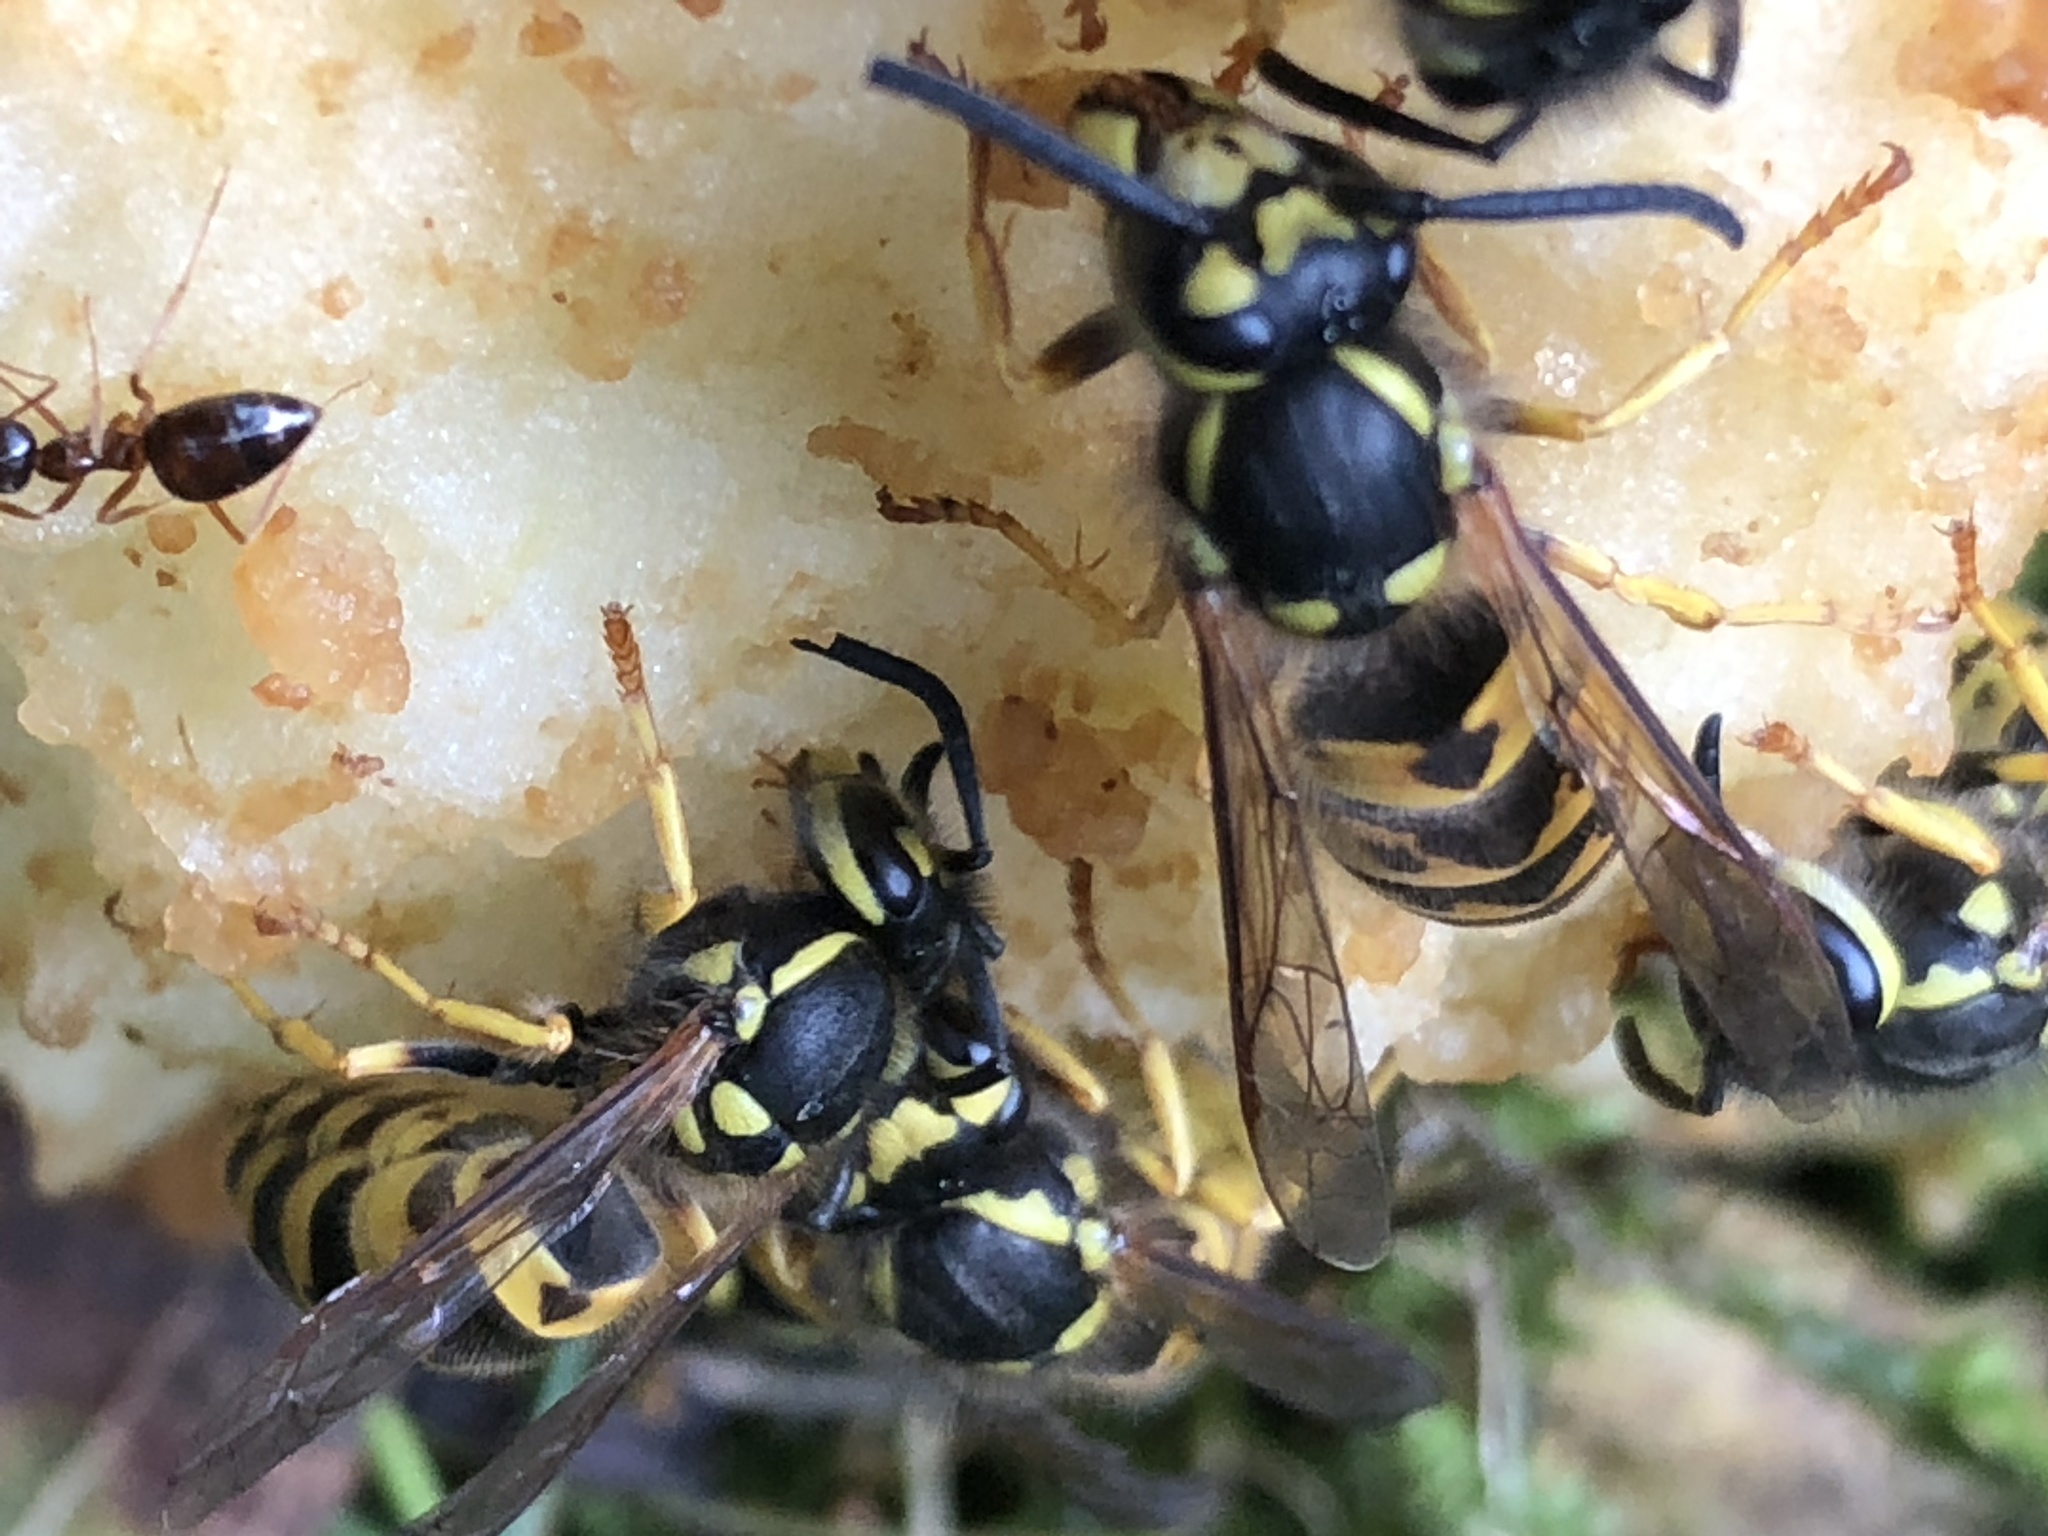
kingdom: Animalia
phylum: Arthropoda
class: Insecta
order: Hymenoptera
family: Vespidae
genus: Vespula
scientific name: Vespula germanica
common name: German wasp
